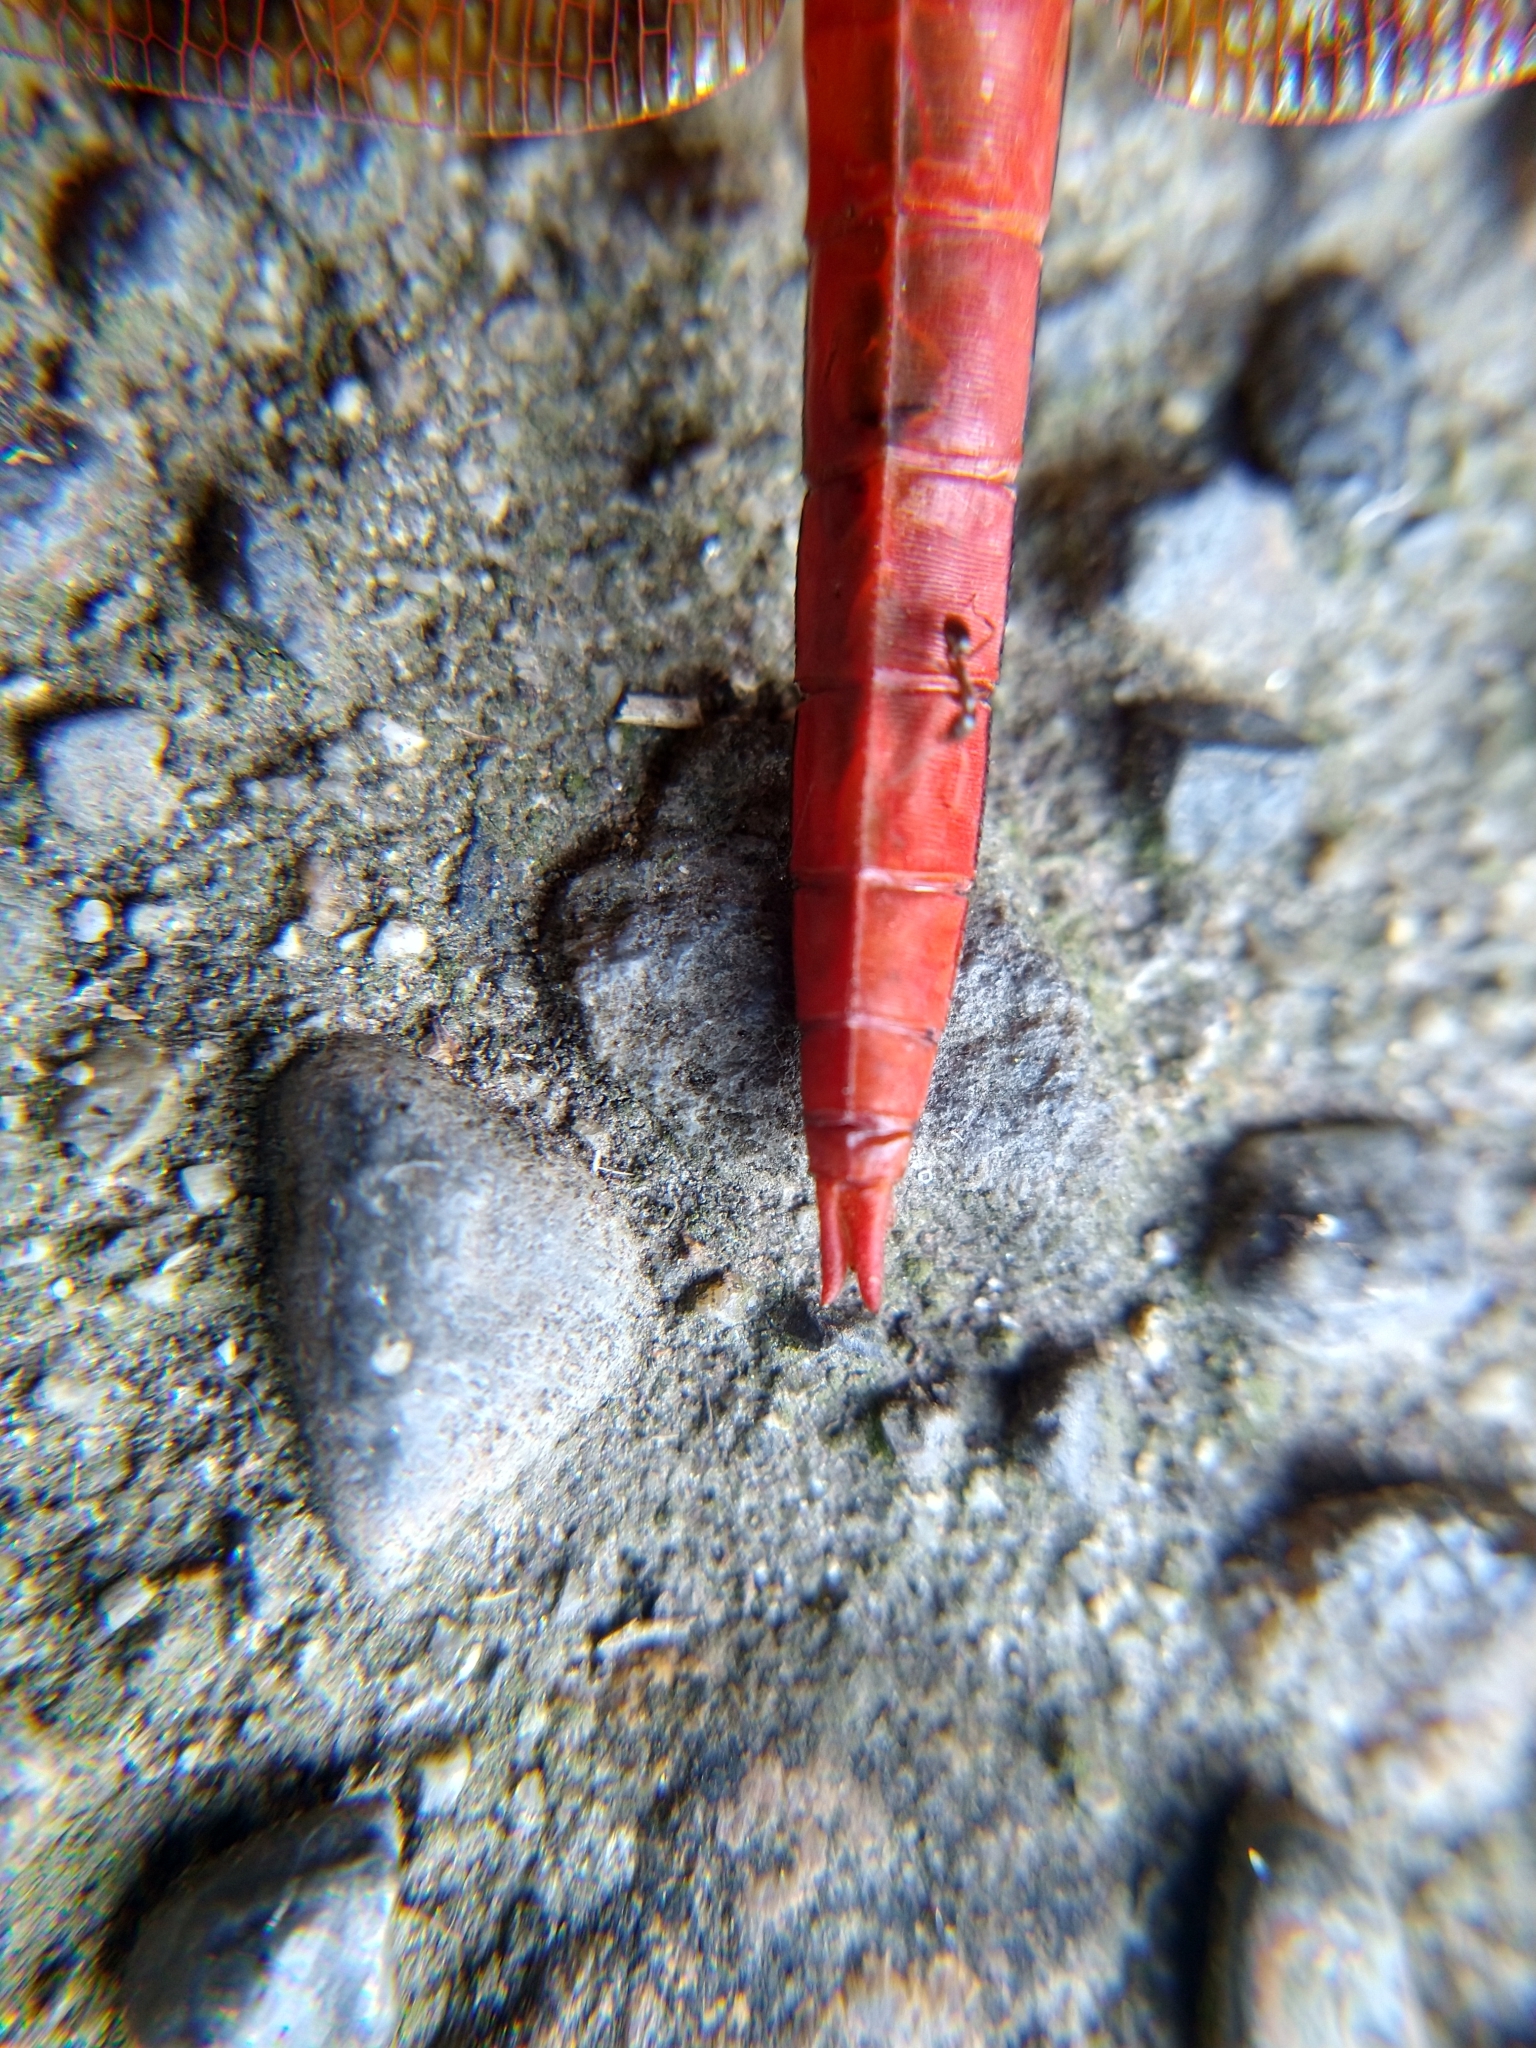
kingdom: Animalia
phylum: Arthropoda
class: Insecta
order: Odonata
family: Libellulidae
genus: Libellula
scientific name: Libellula saturata
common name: Flame skimmer
